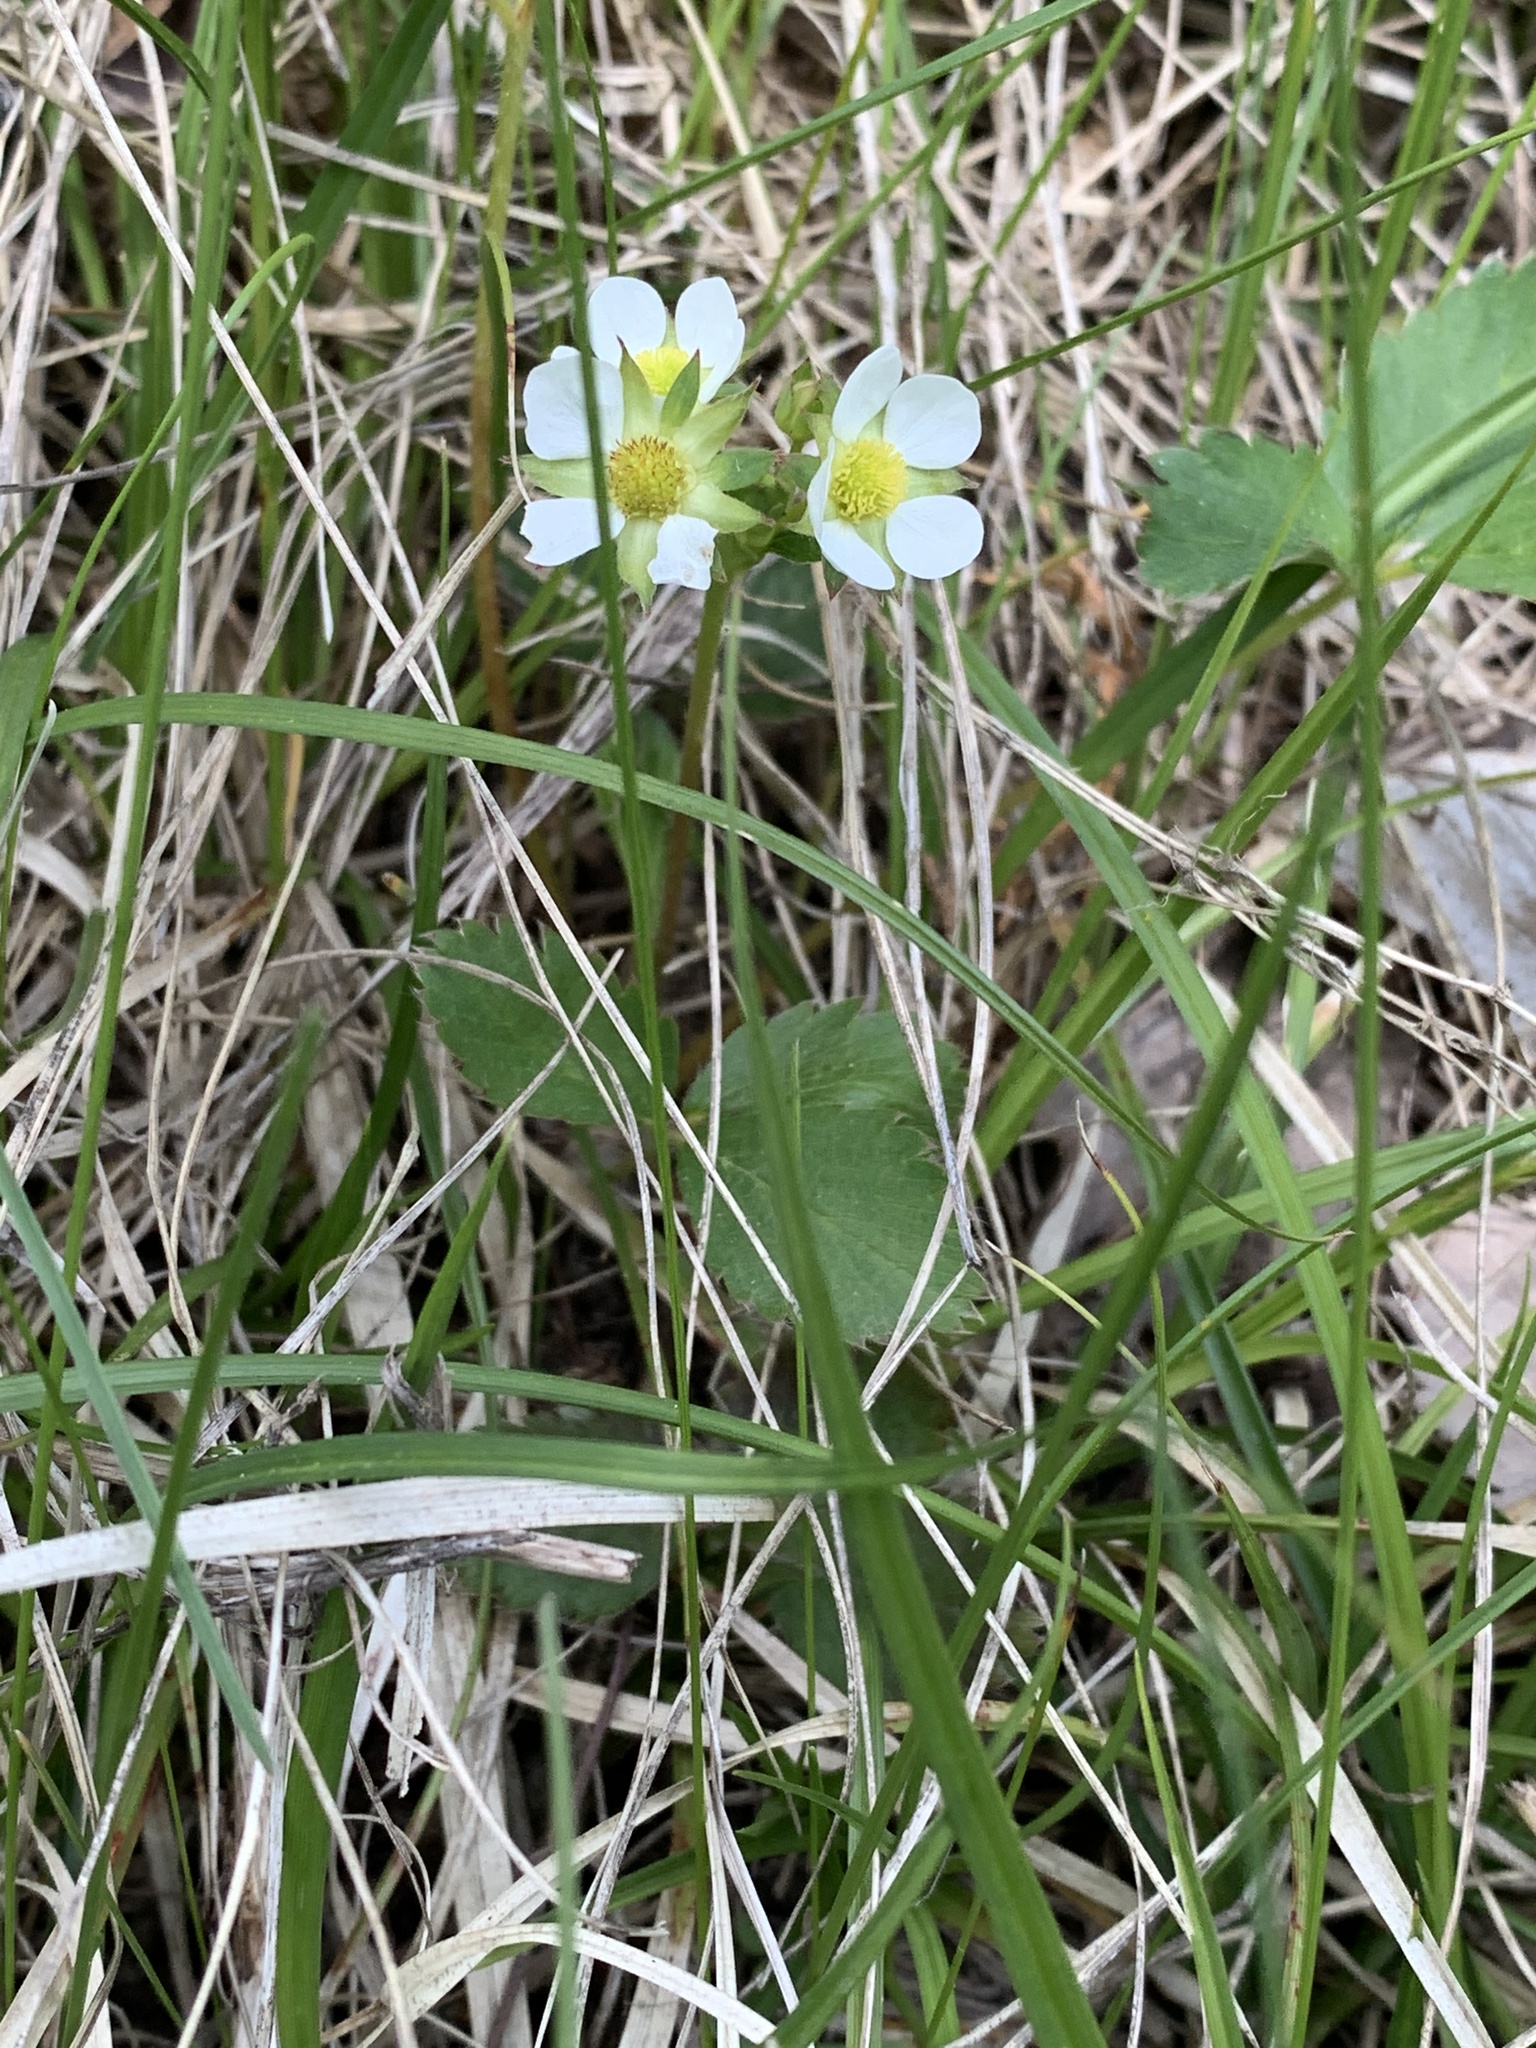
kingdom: Plantae
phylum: Tracheophyta
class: Magnoliopsida
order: Rosales
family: Rosaceae
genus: Fragaria
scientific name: Fragaria virginiana
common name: Thickleaved wild strawberry
